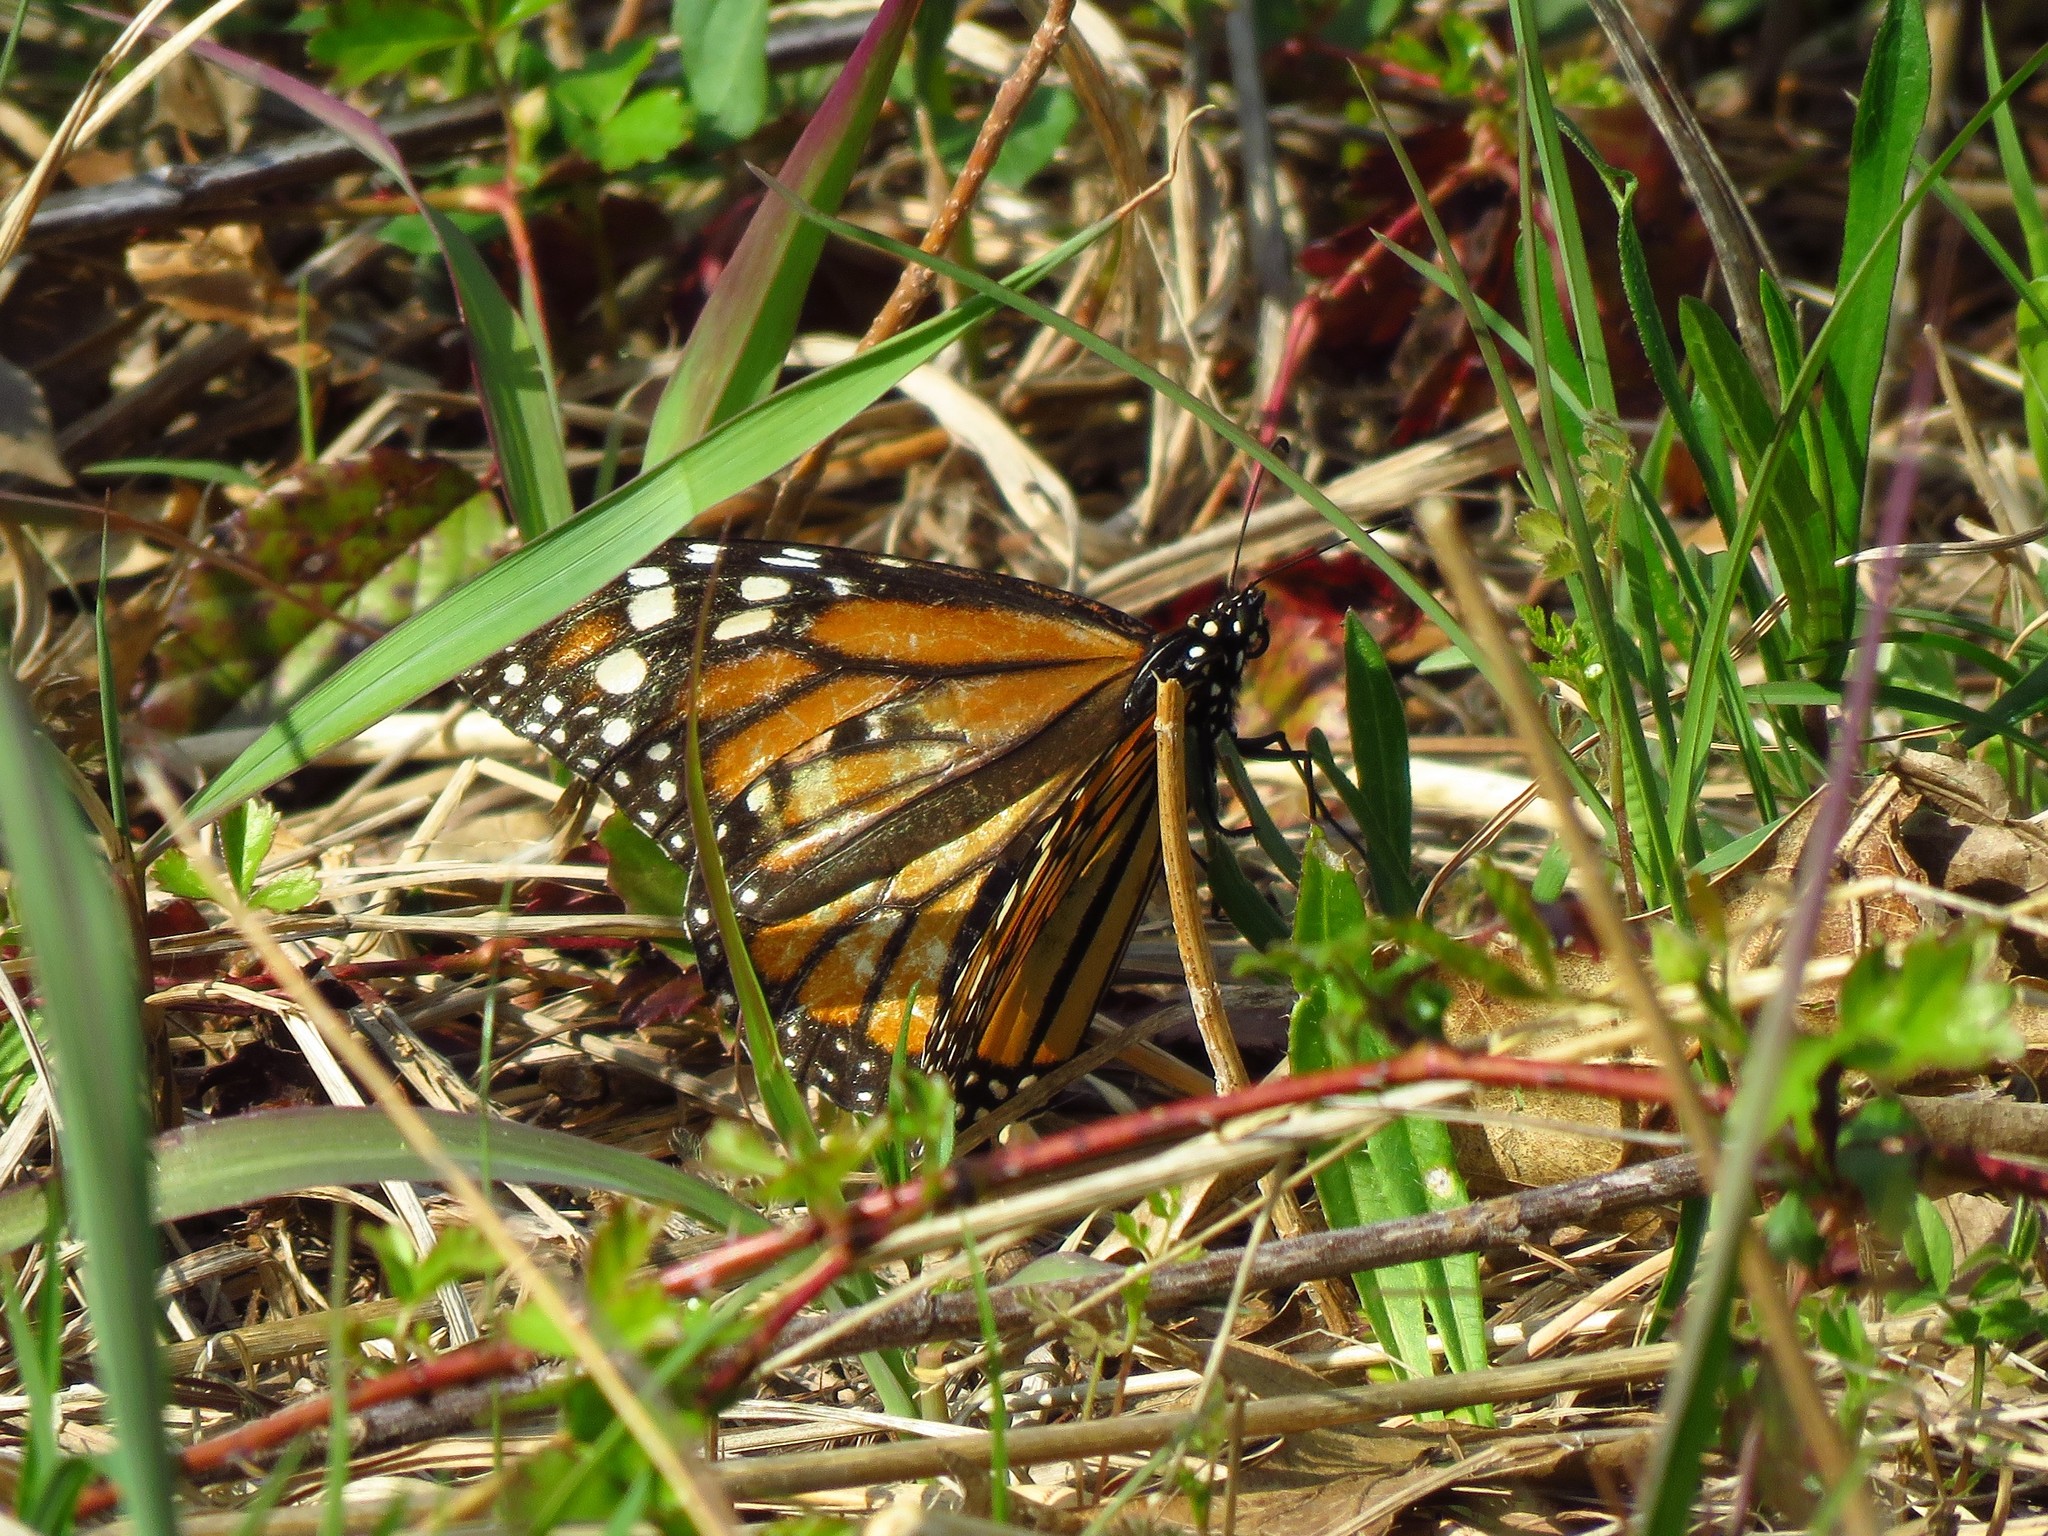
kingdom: Animalia
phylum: Arthropoda
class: Insecta
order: Lepidoptera
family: Nymphalidae
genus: Danaus
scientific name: Danaus plexippus
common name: Monarch
